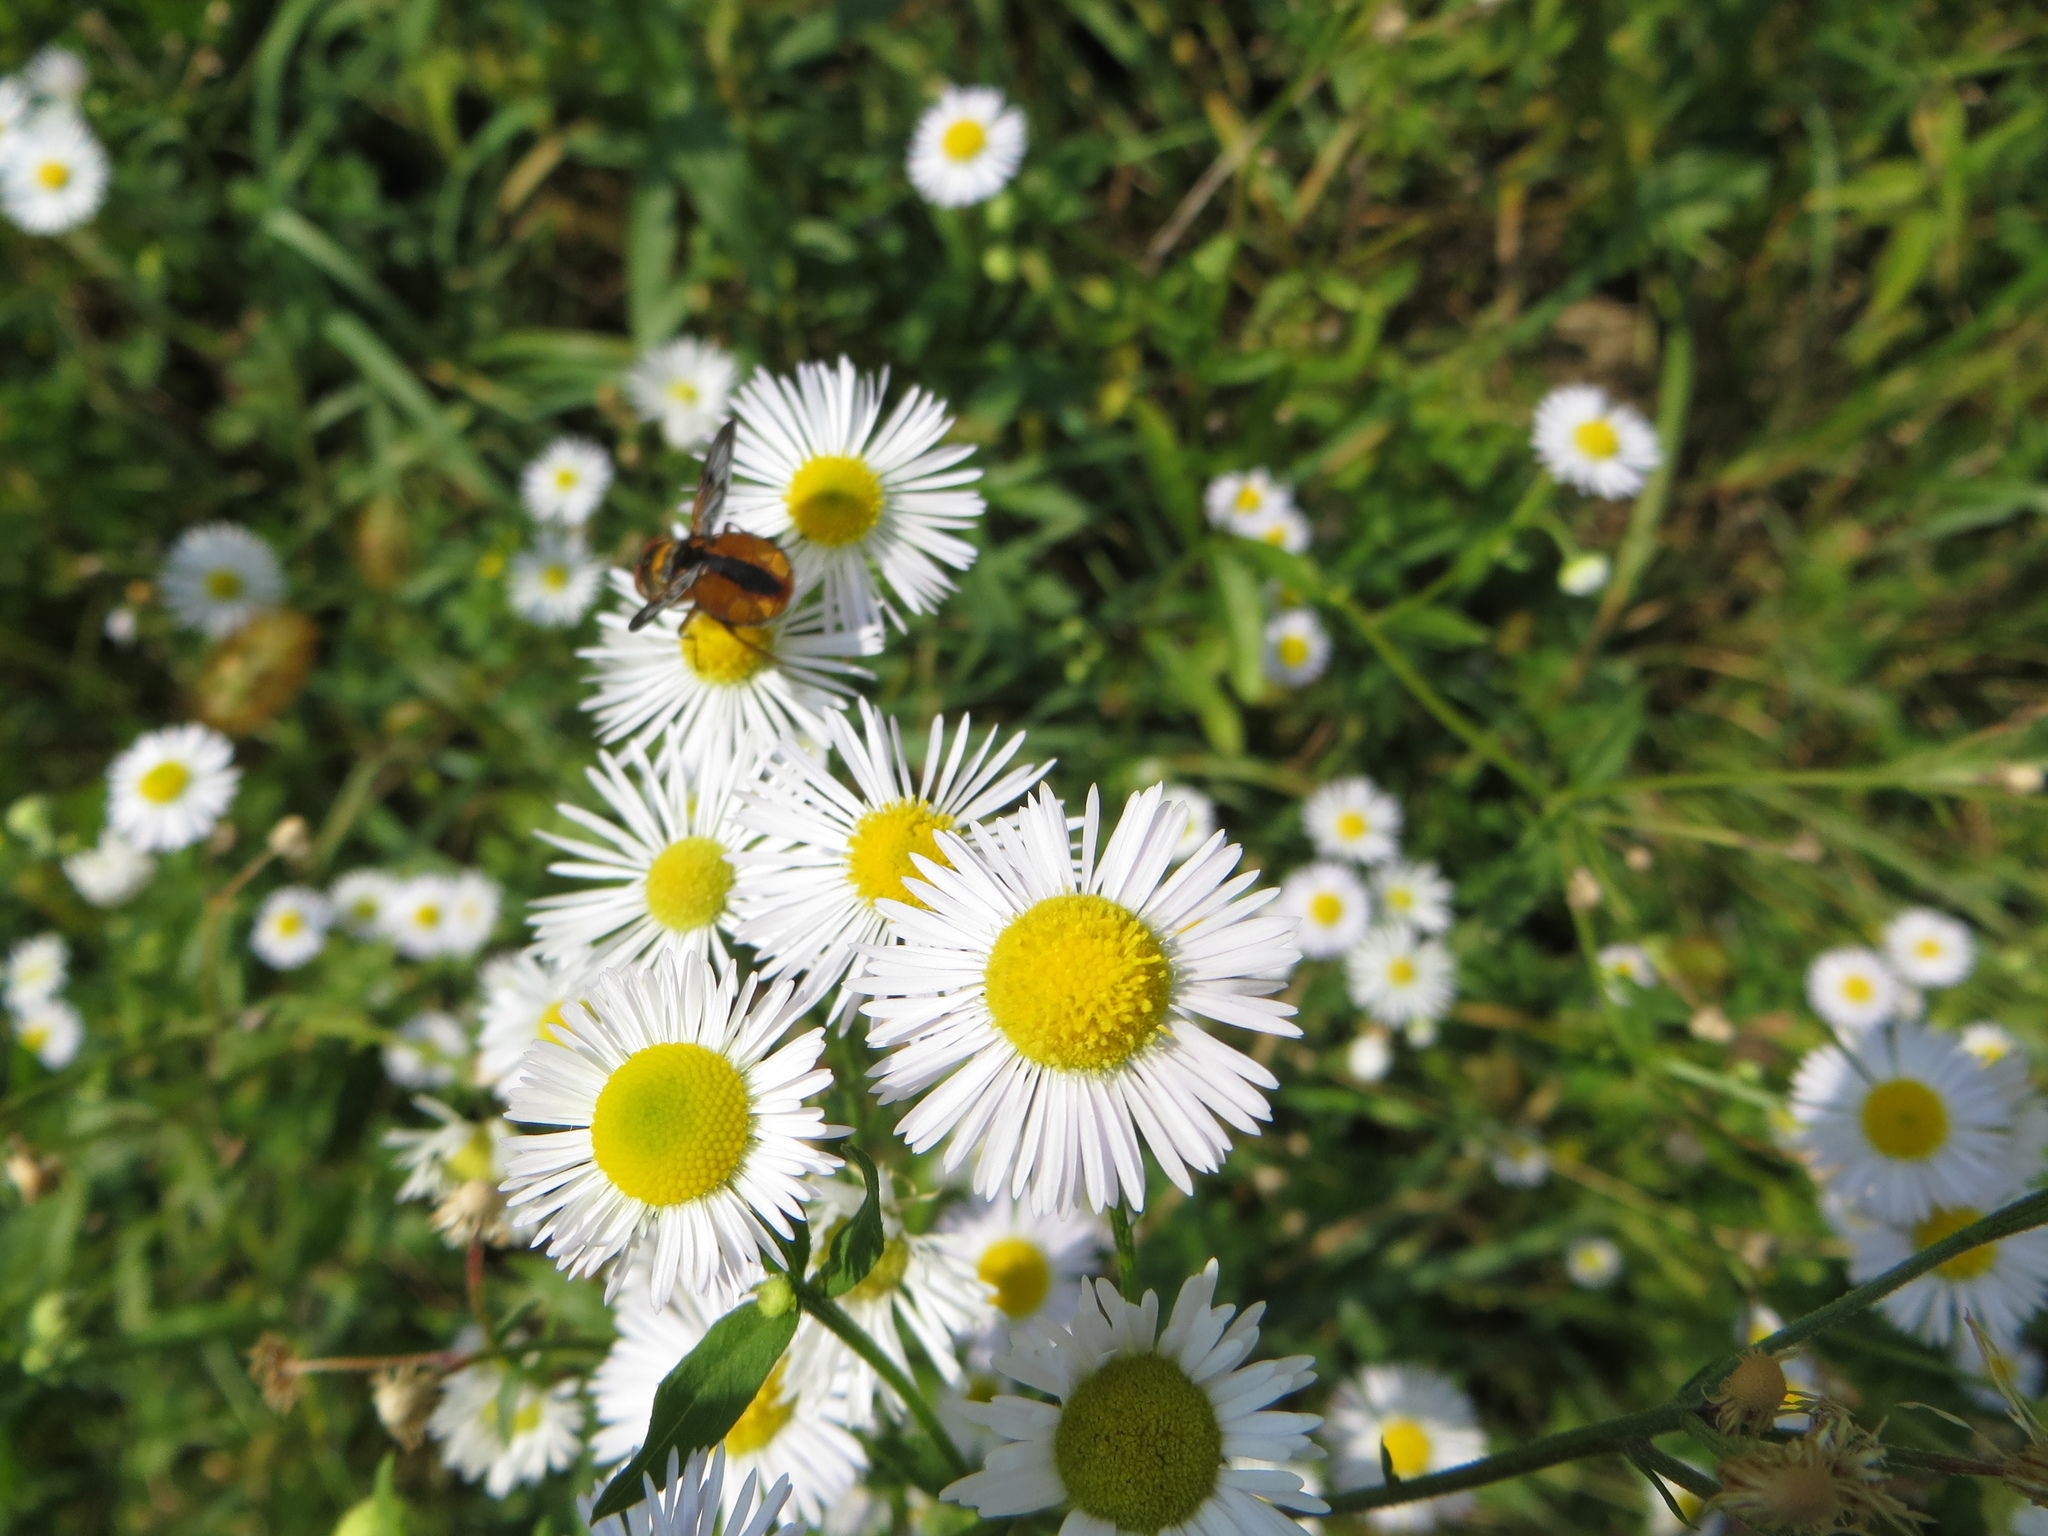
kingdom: Animalia
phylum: Arthropoda
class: Insecta
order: Diptera
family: Tachinidae
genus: Ectophasia
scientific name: Ectophasia crassipennis
